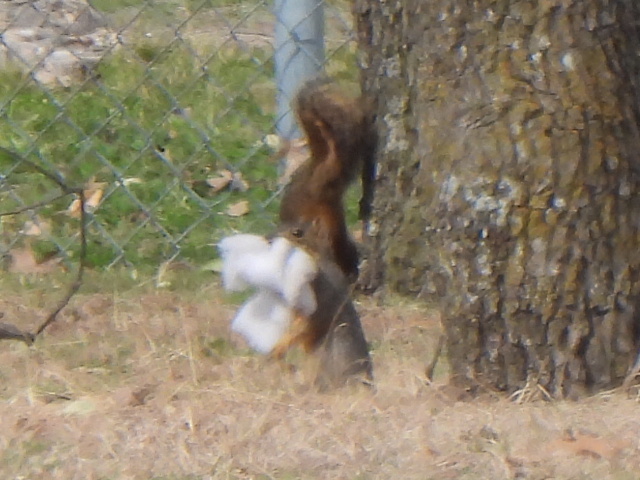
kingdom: Animalia
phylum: Chordata
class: Mammalia
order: Rodentia
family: Sciuridae
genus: Sciurus
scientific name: Sciurus niger
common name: Fox squirrel
